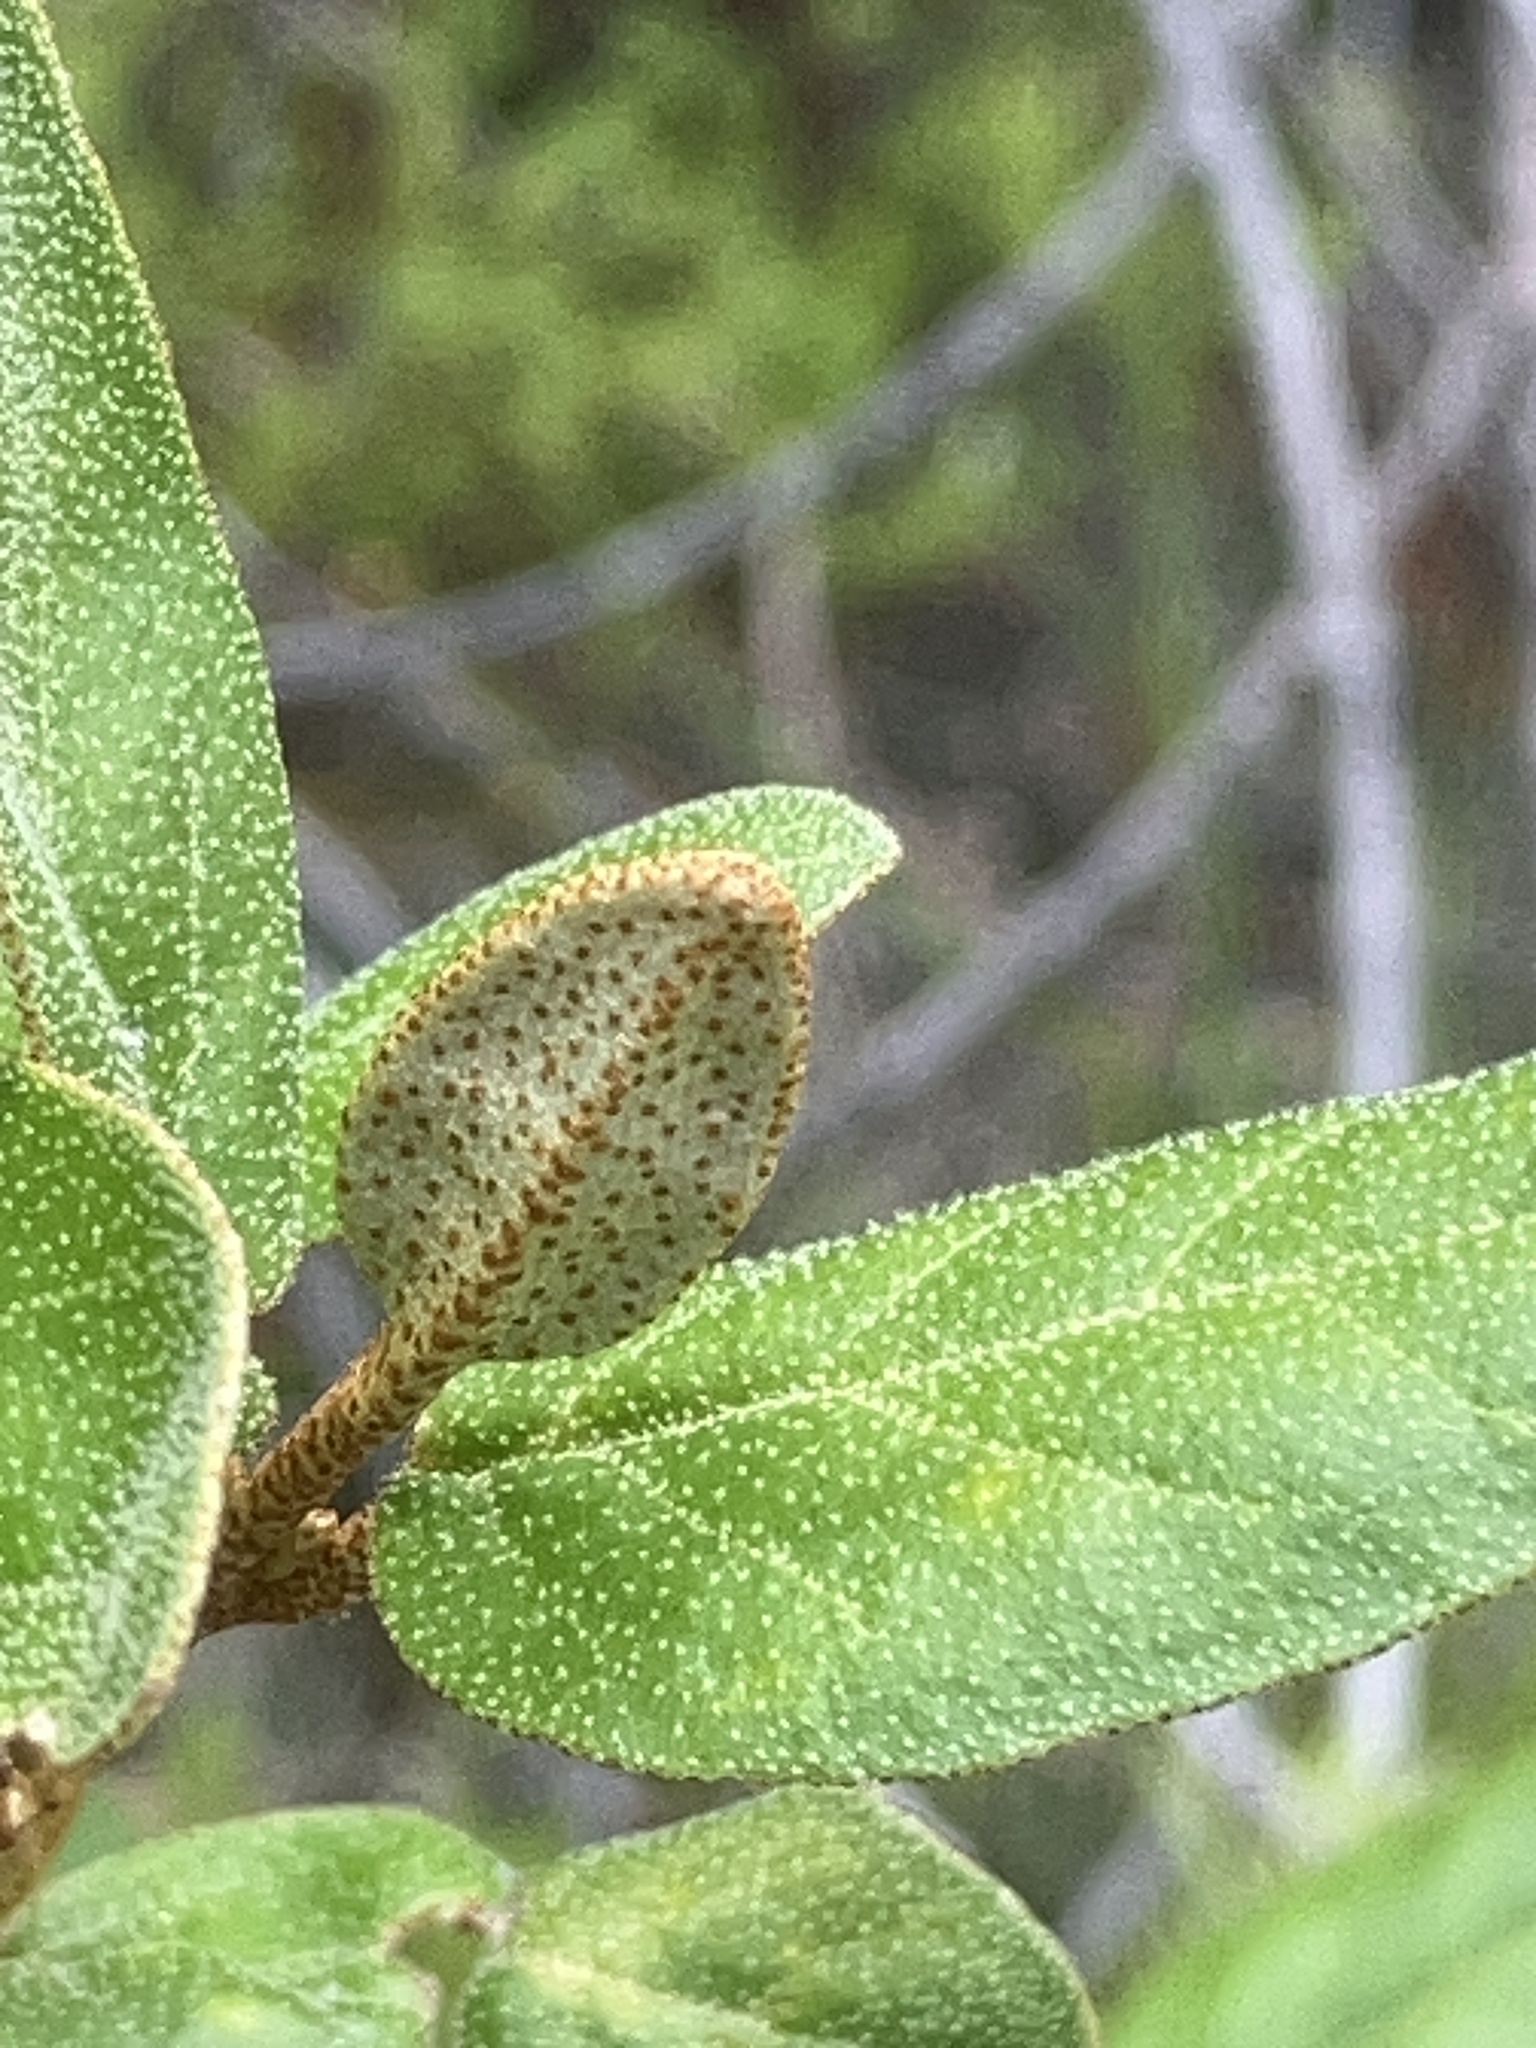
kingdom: Plantae
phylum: Tracheophyta
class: Magnoliopsida
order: Rosales
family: Elaeagnaceae
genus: Shepherdia
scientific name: Shepherdia canadensis
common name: Soapberry
